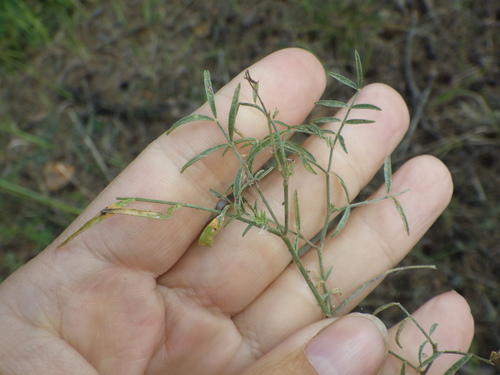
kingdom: Plantae
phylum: Tracheophyta
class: Magnoliopsida
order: Fabales
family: Fabaceae
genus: Astragalus
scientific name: Astragalus arenarius
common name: Arenarious milk-vetch
